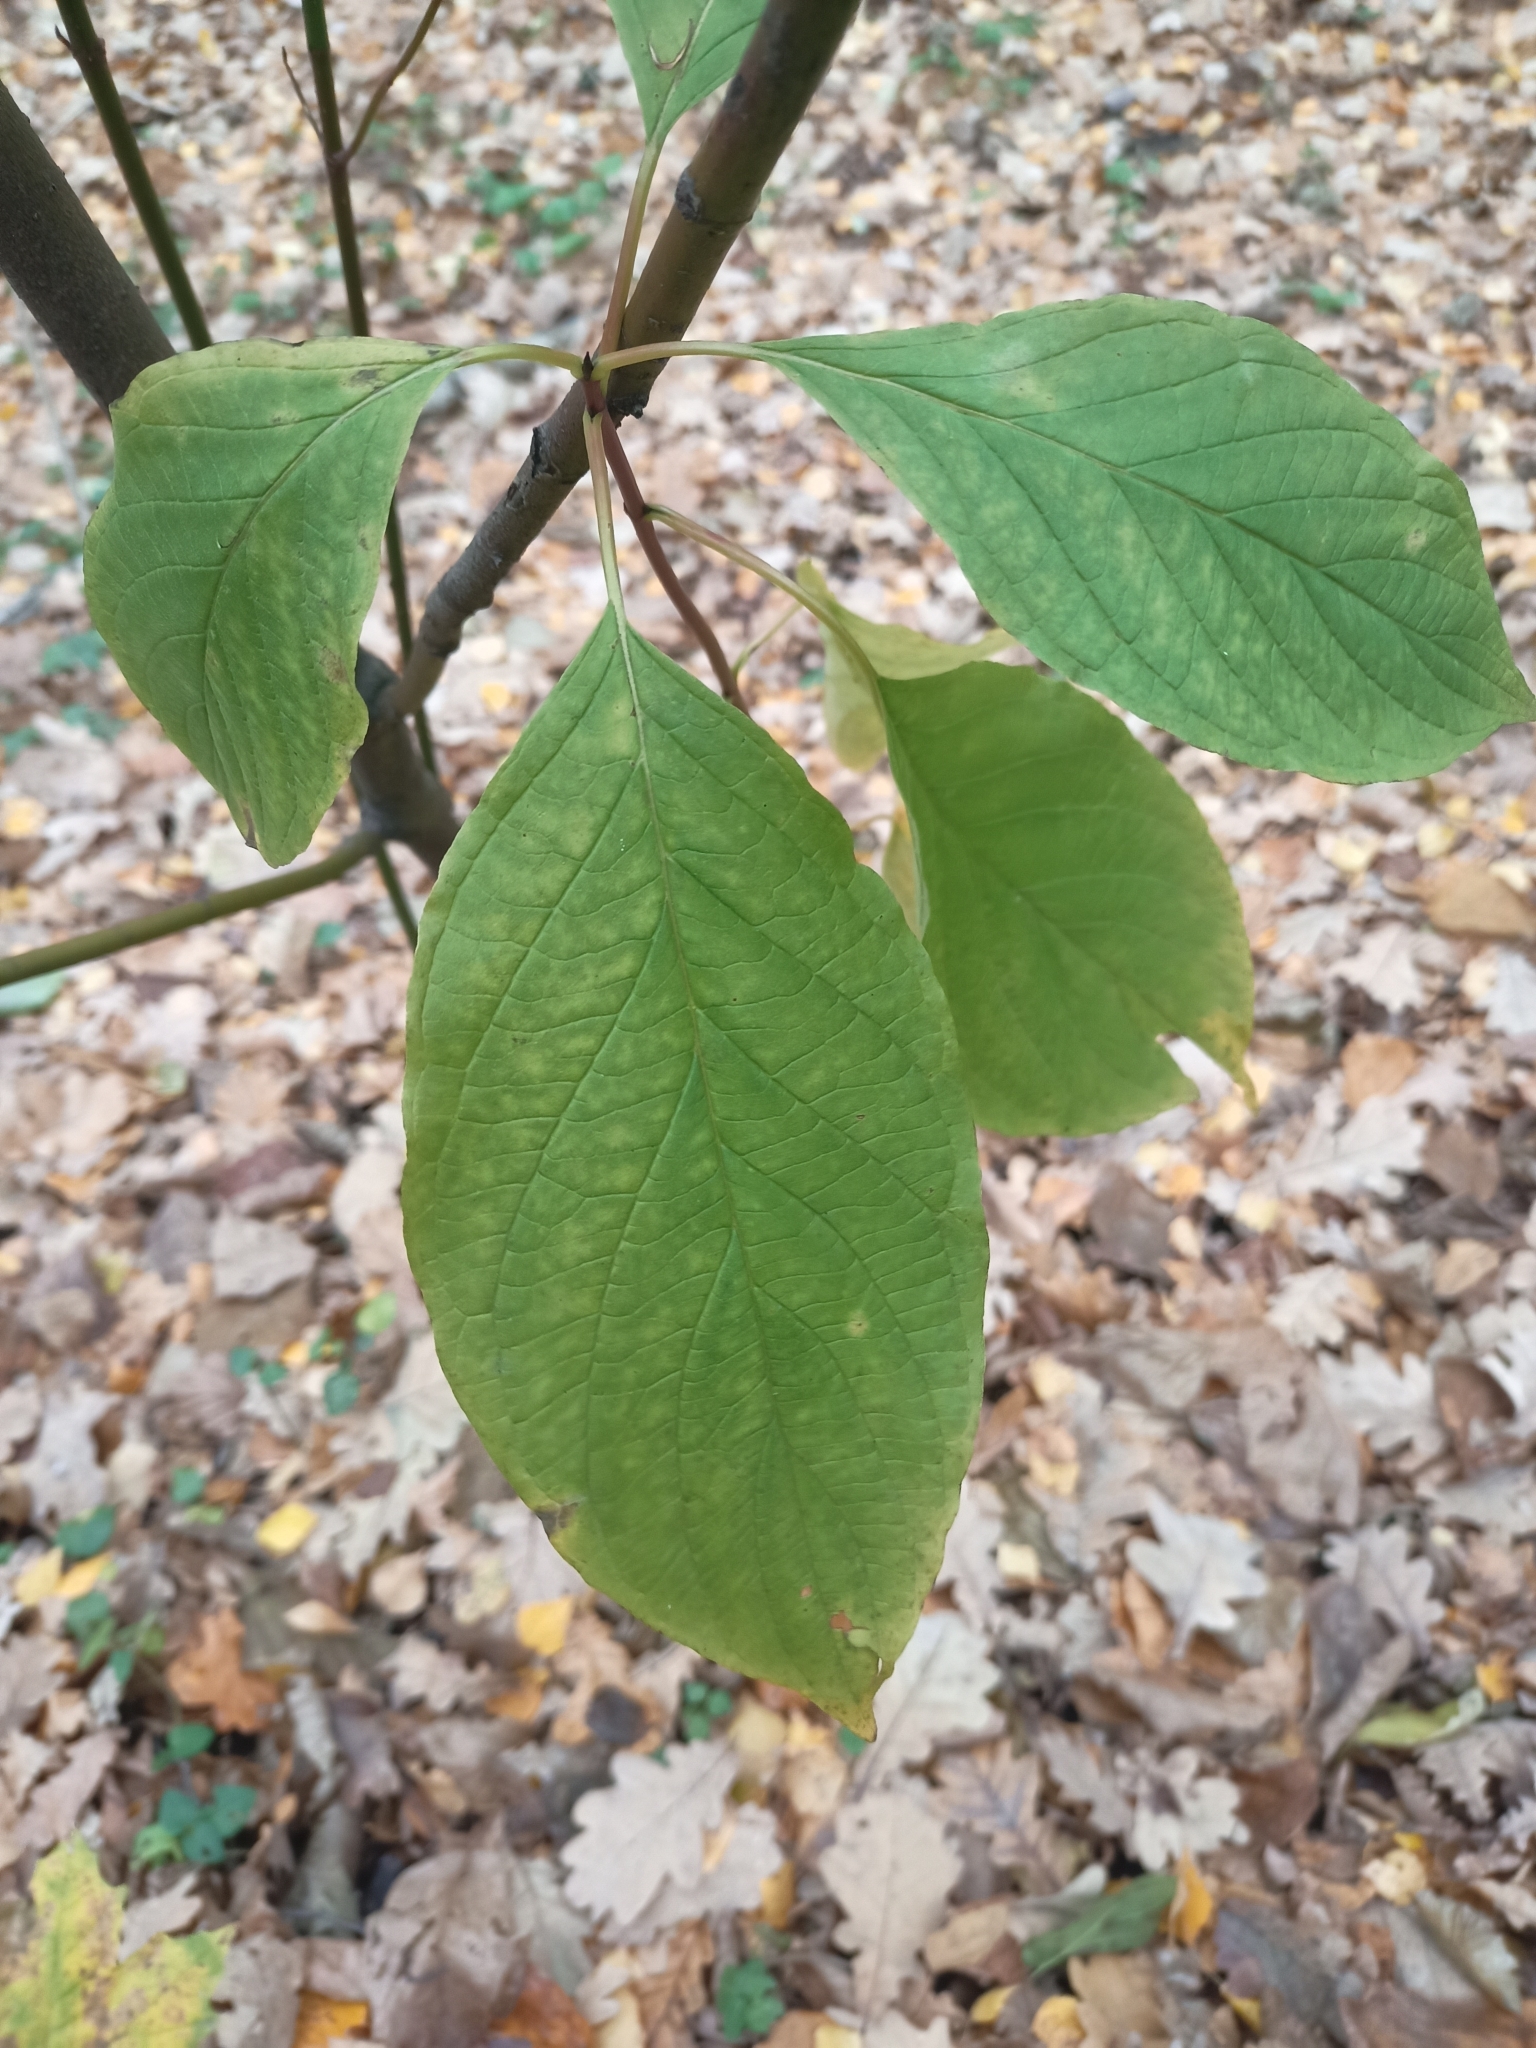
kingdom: Plantae
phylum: Tracheophyta
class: Magnoliopsida
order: Cornales
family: Cornaceae
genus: Cornus
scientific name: Cornus sericea
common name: Red-osier dogwood
